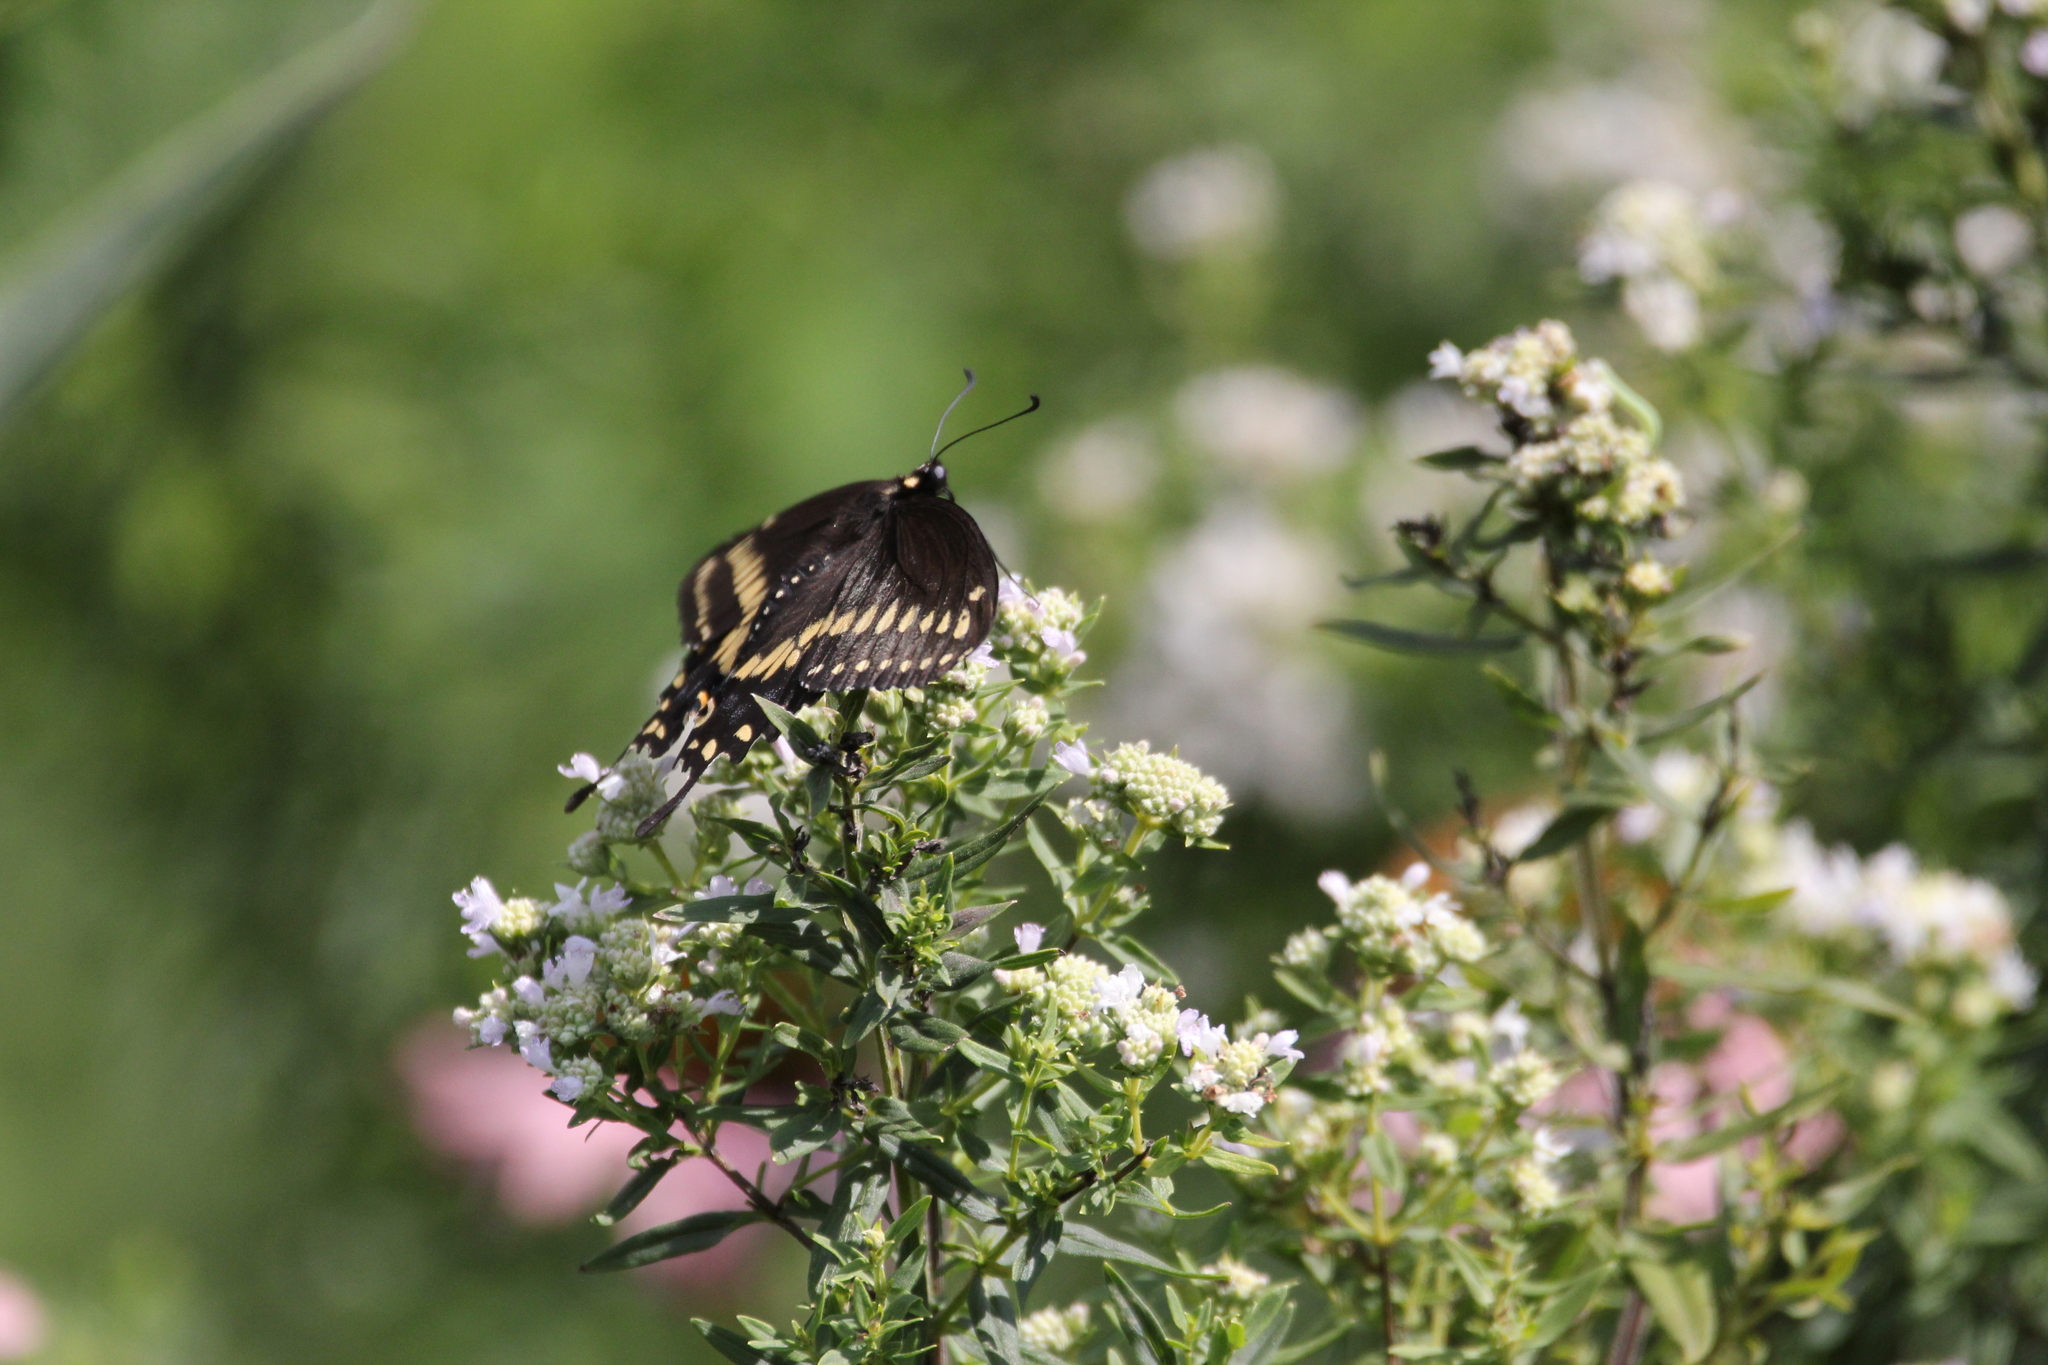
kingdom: Animalia
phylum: Arthropoda
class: Insecta
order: Lepidoptera
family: Papilionidae
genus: Papilio
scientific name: Papilio polyxenes
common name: Black swallowtail
